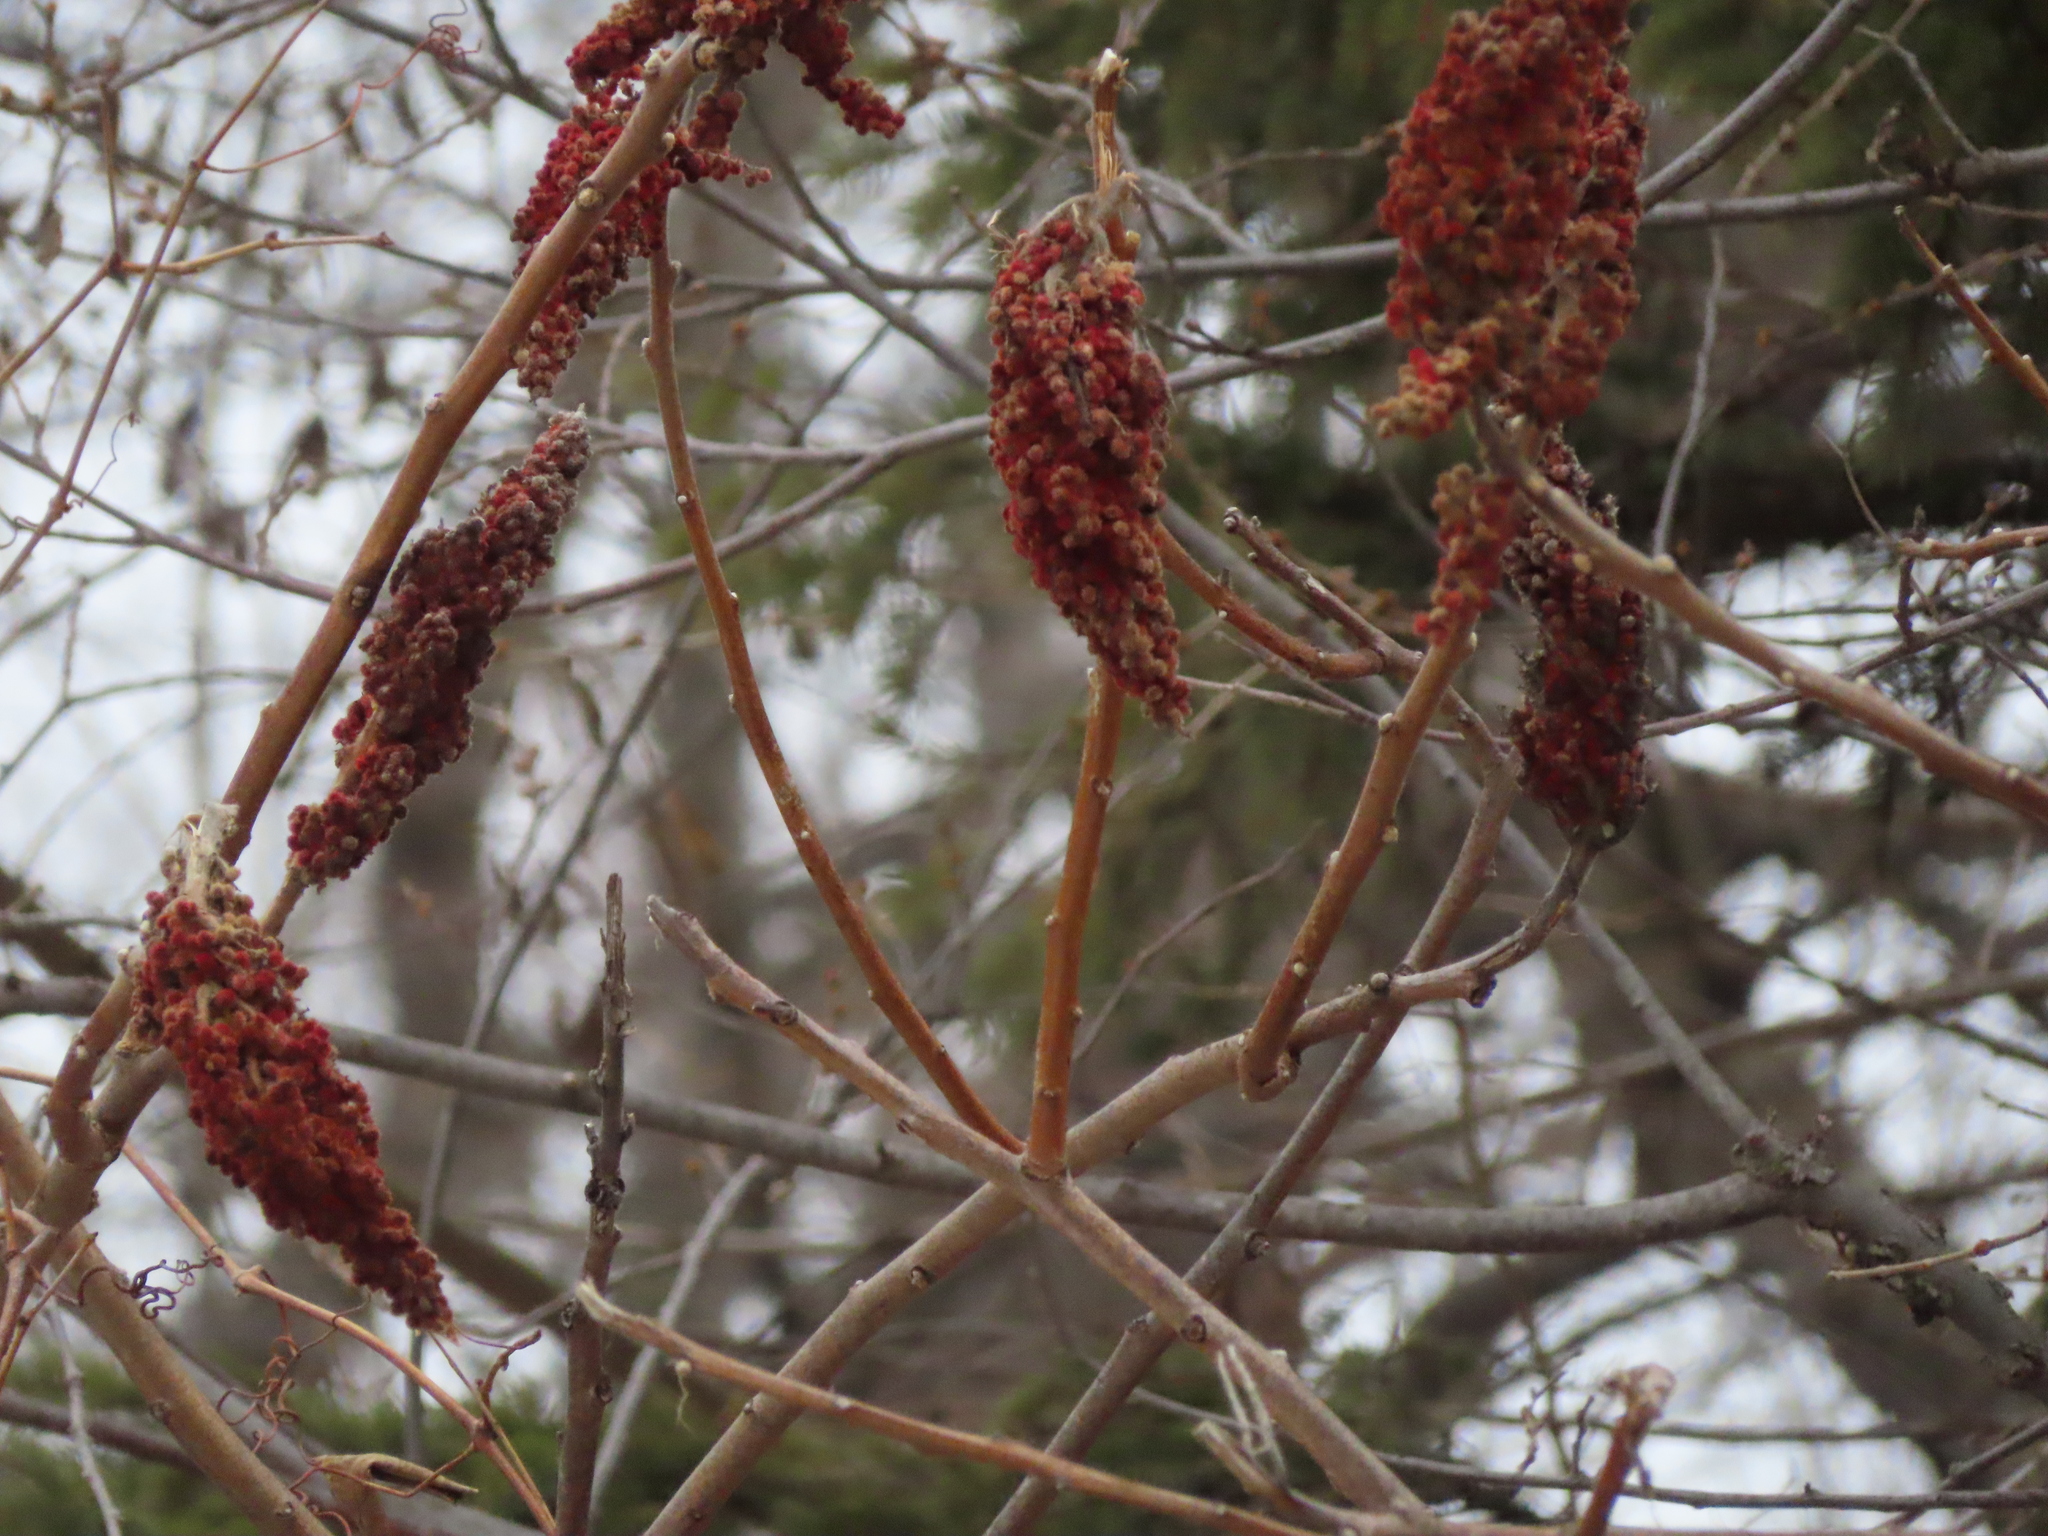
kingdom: Plantae
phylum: Tracheophyta
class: Magnoliopsida
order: Sapindales
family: Anacardiaceae
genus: Rhus
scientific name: Rhus typhina
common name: Staghorn sumac
